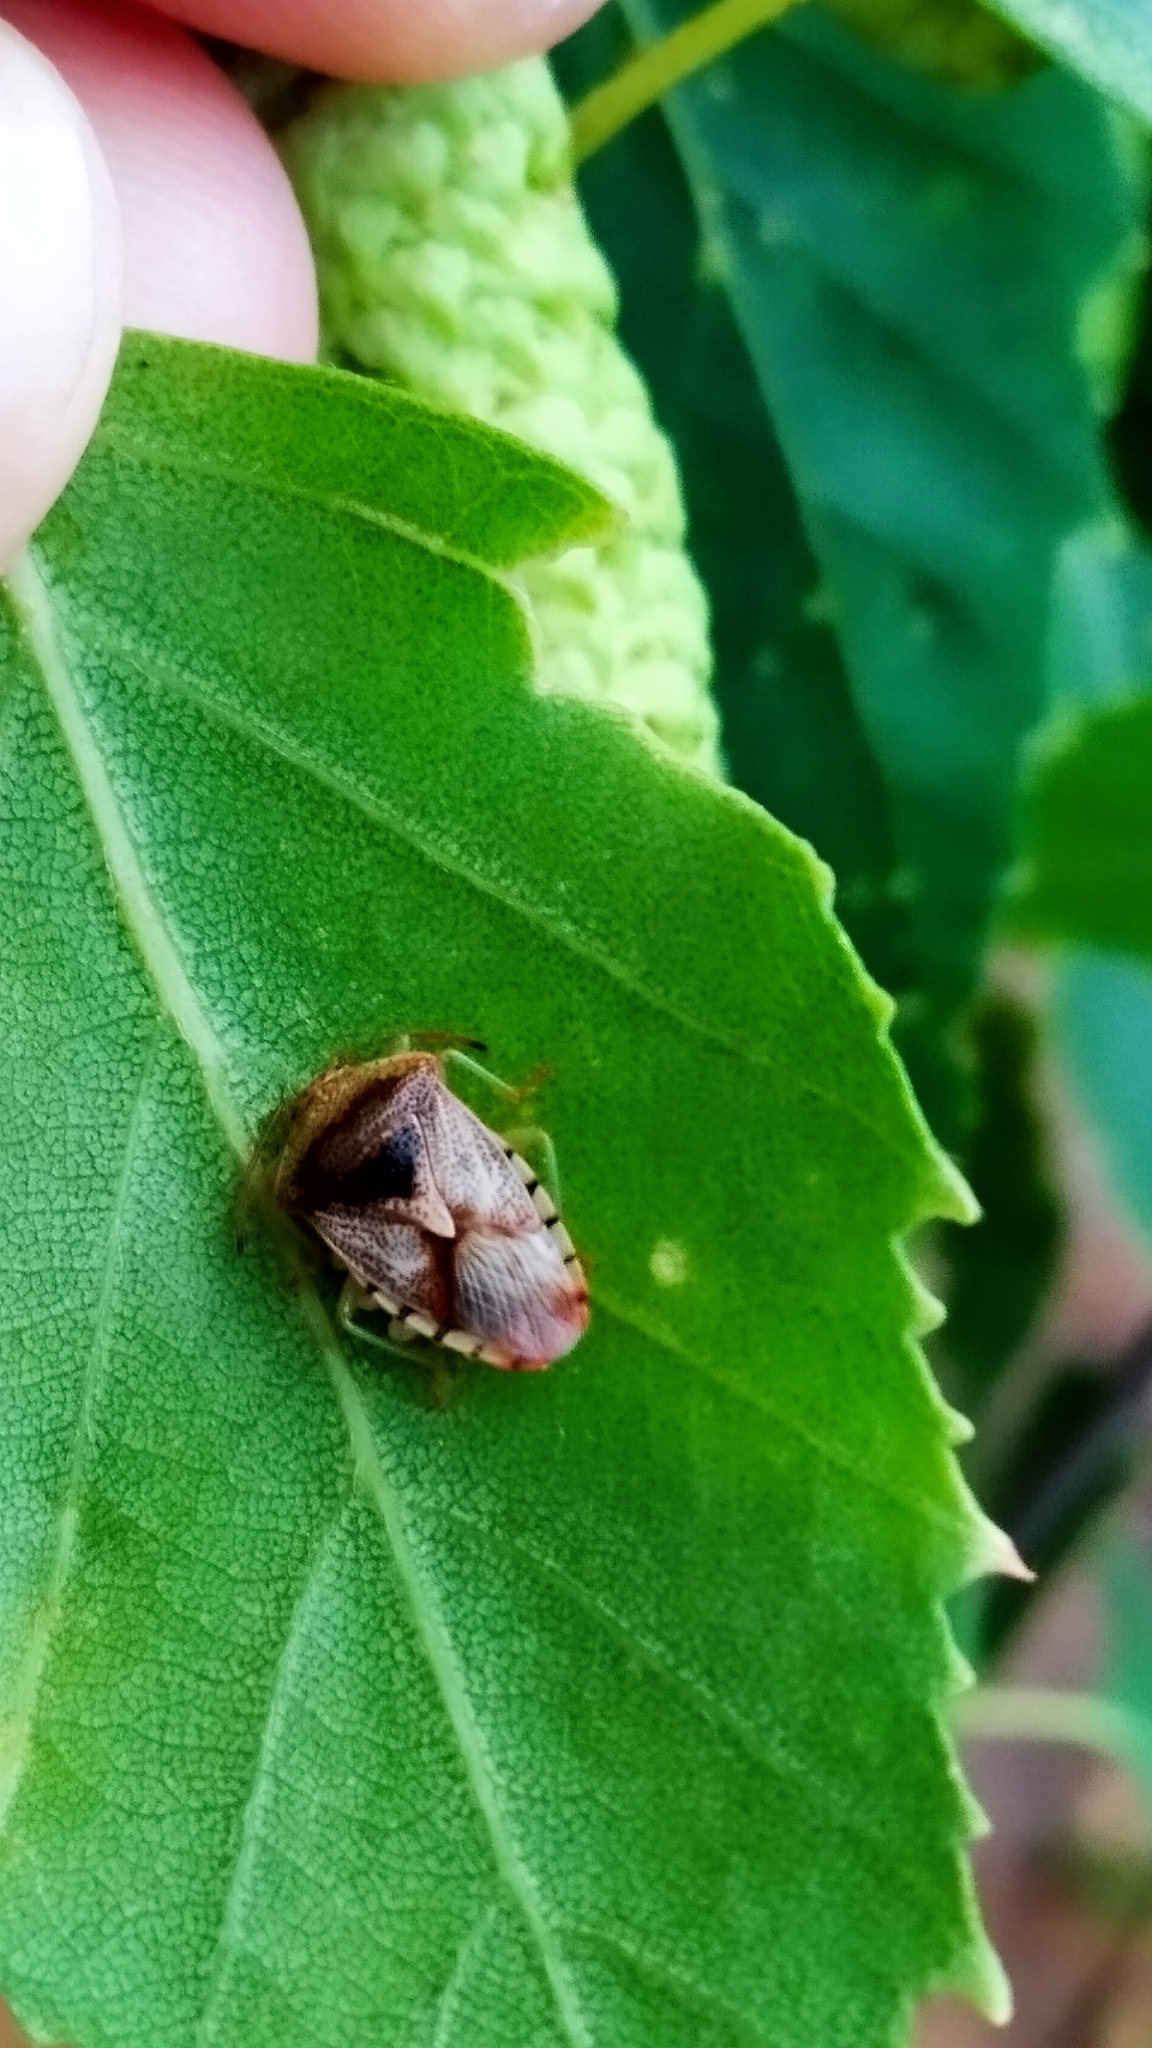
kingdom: Animalia
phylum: Arthropoda
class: Insecta
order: Hemiptera
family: Acanthosomatidae
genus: Elasmucha
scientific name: Elasmucha grisea
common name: Parent bug
